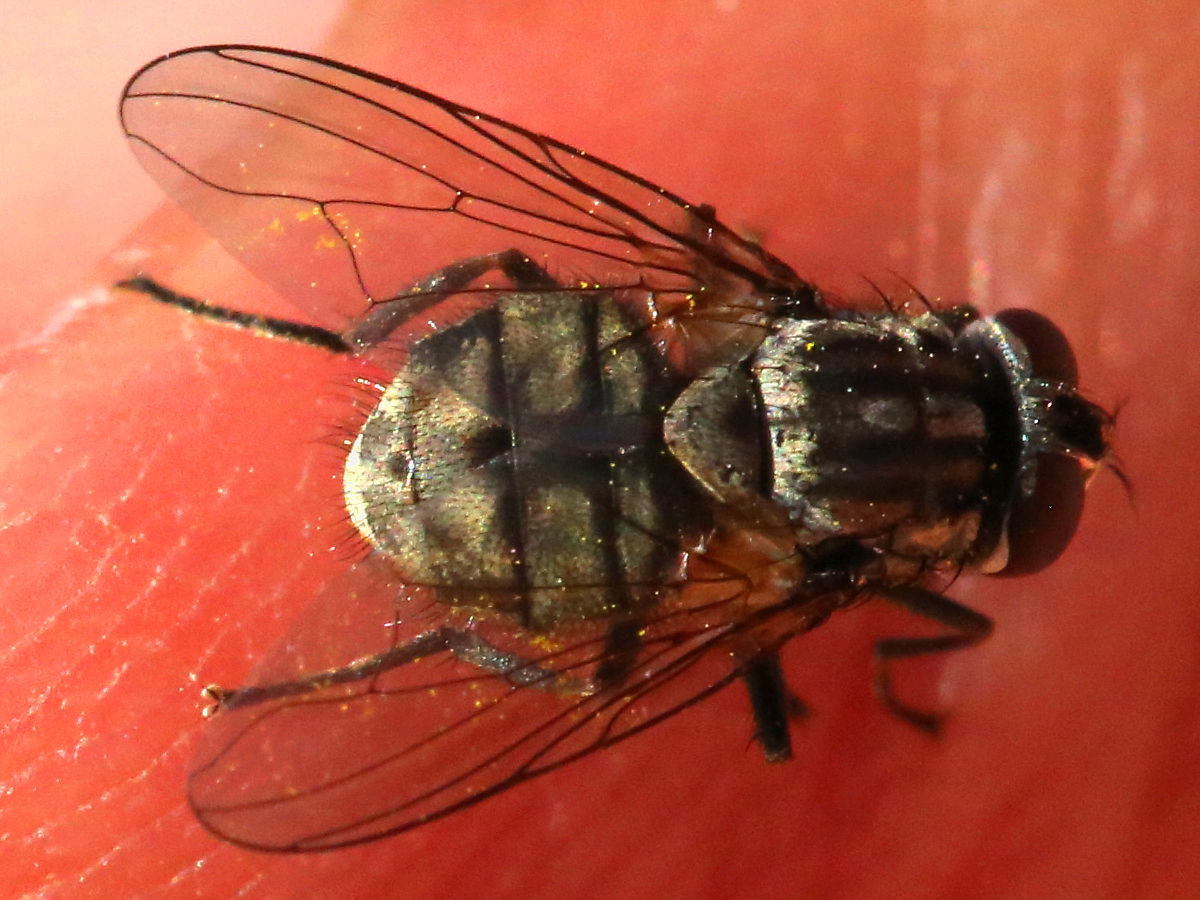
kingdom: Animalia
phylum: Arthropoda
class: Insecta
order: Diptera
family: Muscidae
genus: Stomoxys
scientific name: Stomoxys calcitrans
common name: Stable fly
